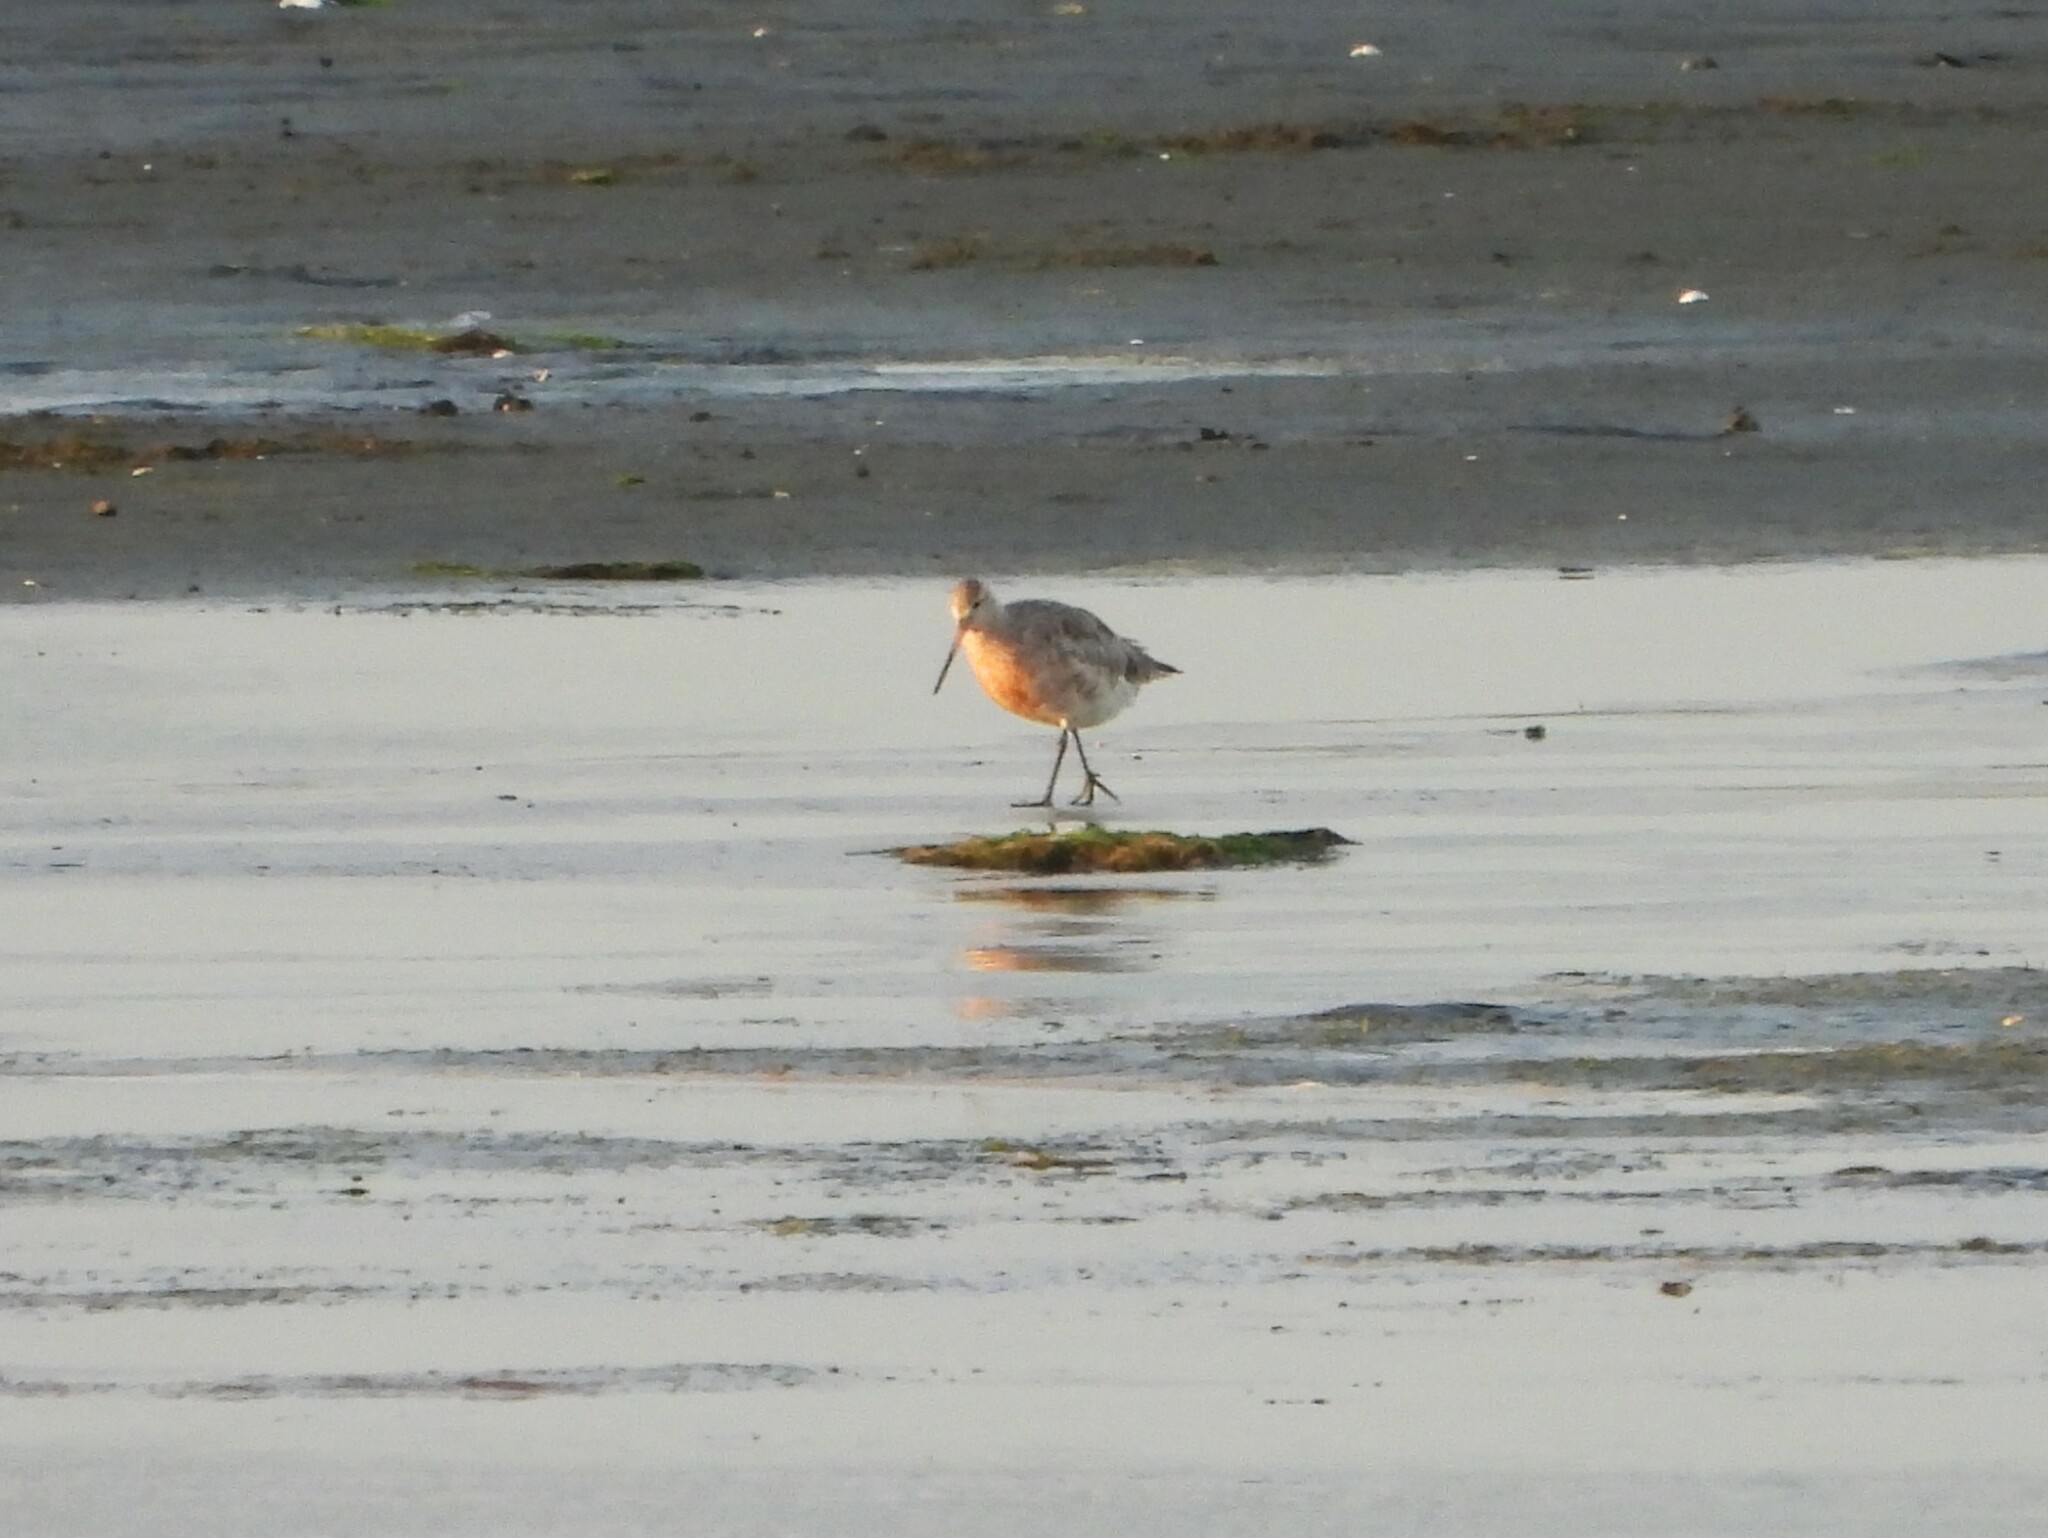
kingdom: Animalia
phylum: Chordata
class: Aves
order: Charadriiformes
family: Scolopacidae
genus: Limosa
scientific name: Limosa lapponica
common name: Bar-tailed godwit
